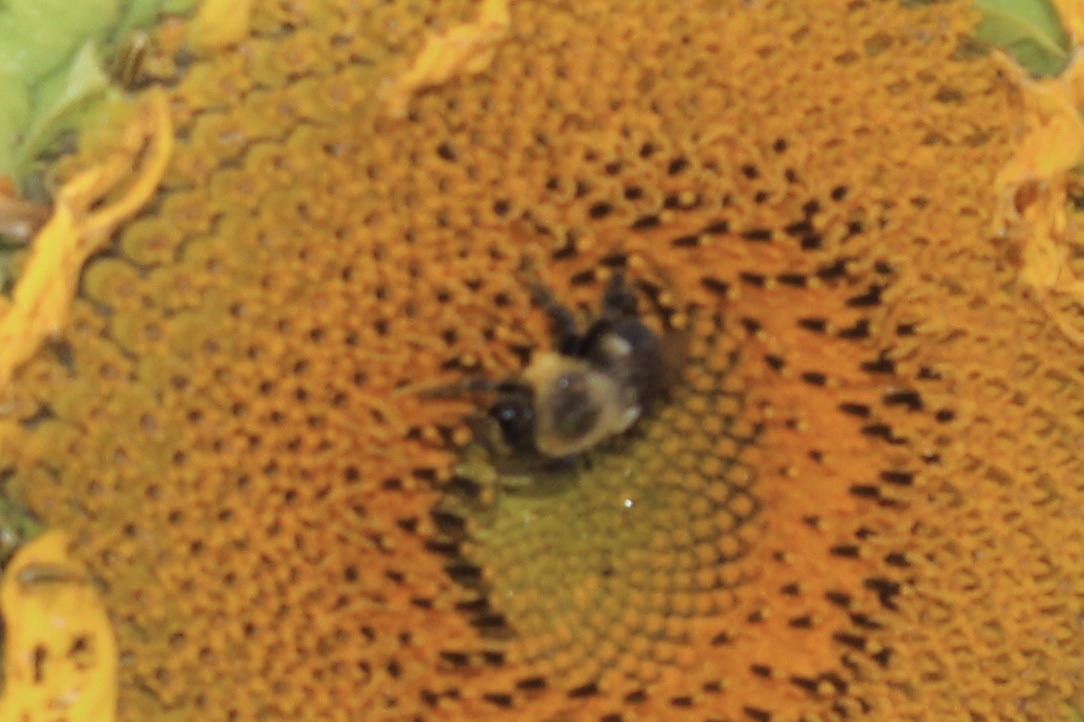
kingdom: Animalia
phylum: Arthropoda
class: Insecta
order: Hymenoptera
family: Apidae
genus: Bombus
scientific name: Bombus impatiens
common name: Common eastern bumble bee
